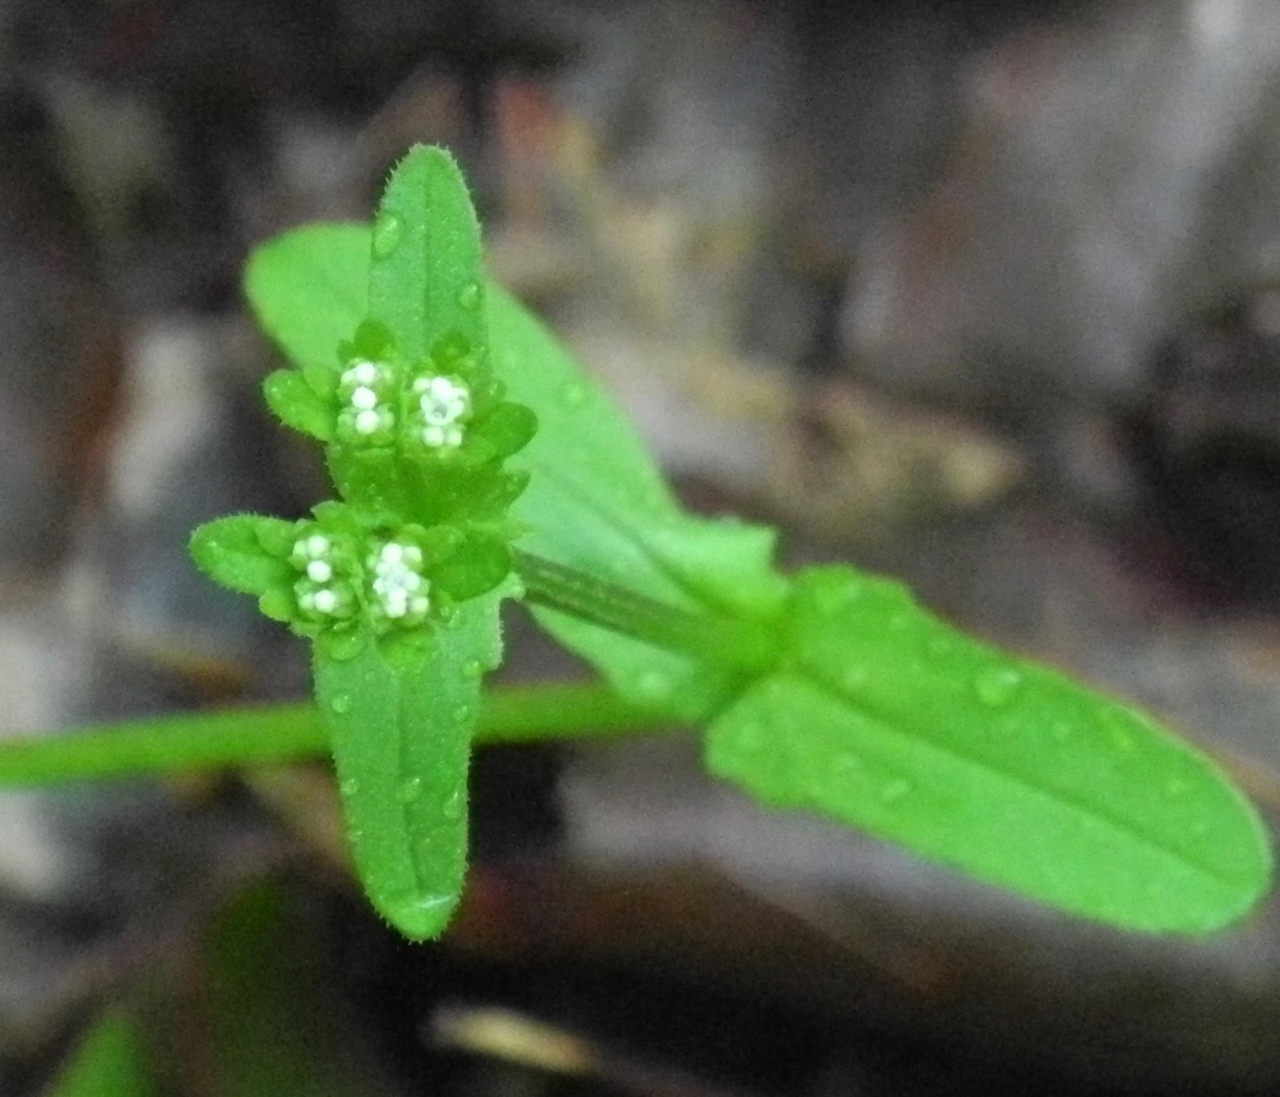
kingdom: Plantae
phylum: Tracheophyta
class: Magnoliopsida
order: Dipsacales
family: Caprifoliaceae
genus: Valerianella
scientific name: Valerianella locusta
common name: Common cornsalad
